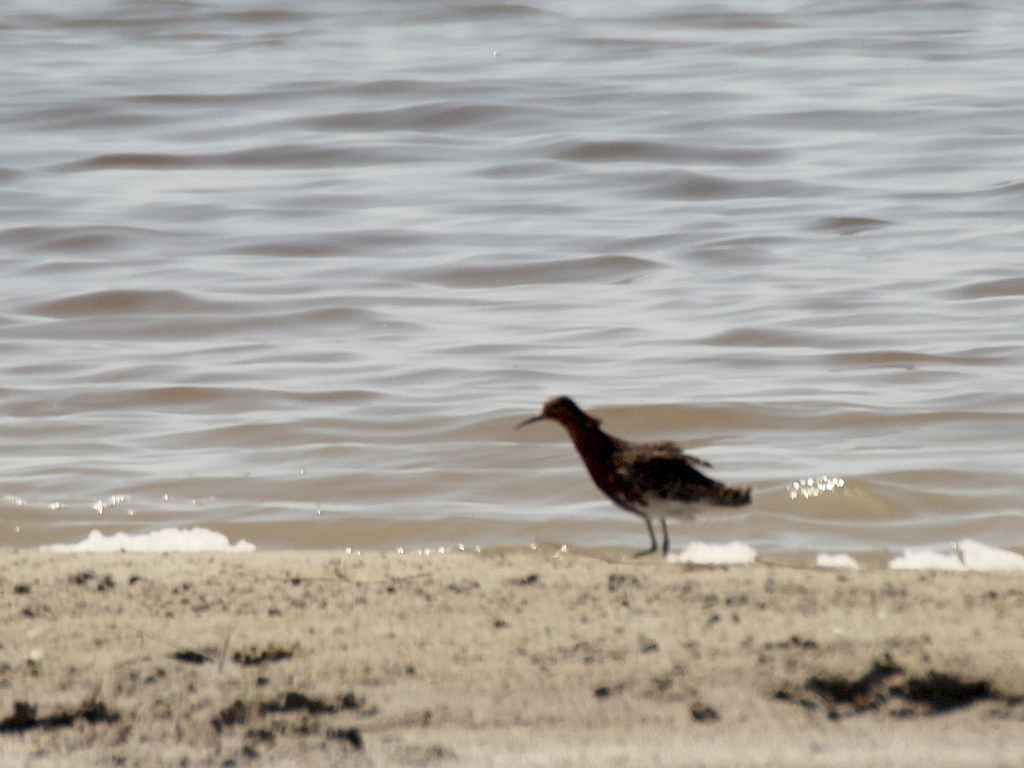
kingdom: Animalia
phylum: Chordata
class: Aves
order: Charadriiformes
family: Scolopacidae
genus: Calidris
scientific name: Calidris pugnax
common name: Ruff
